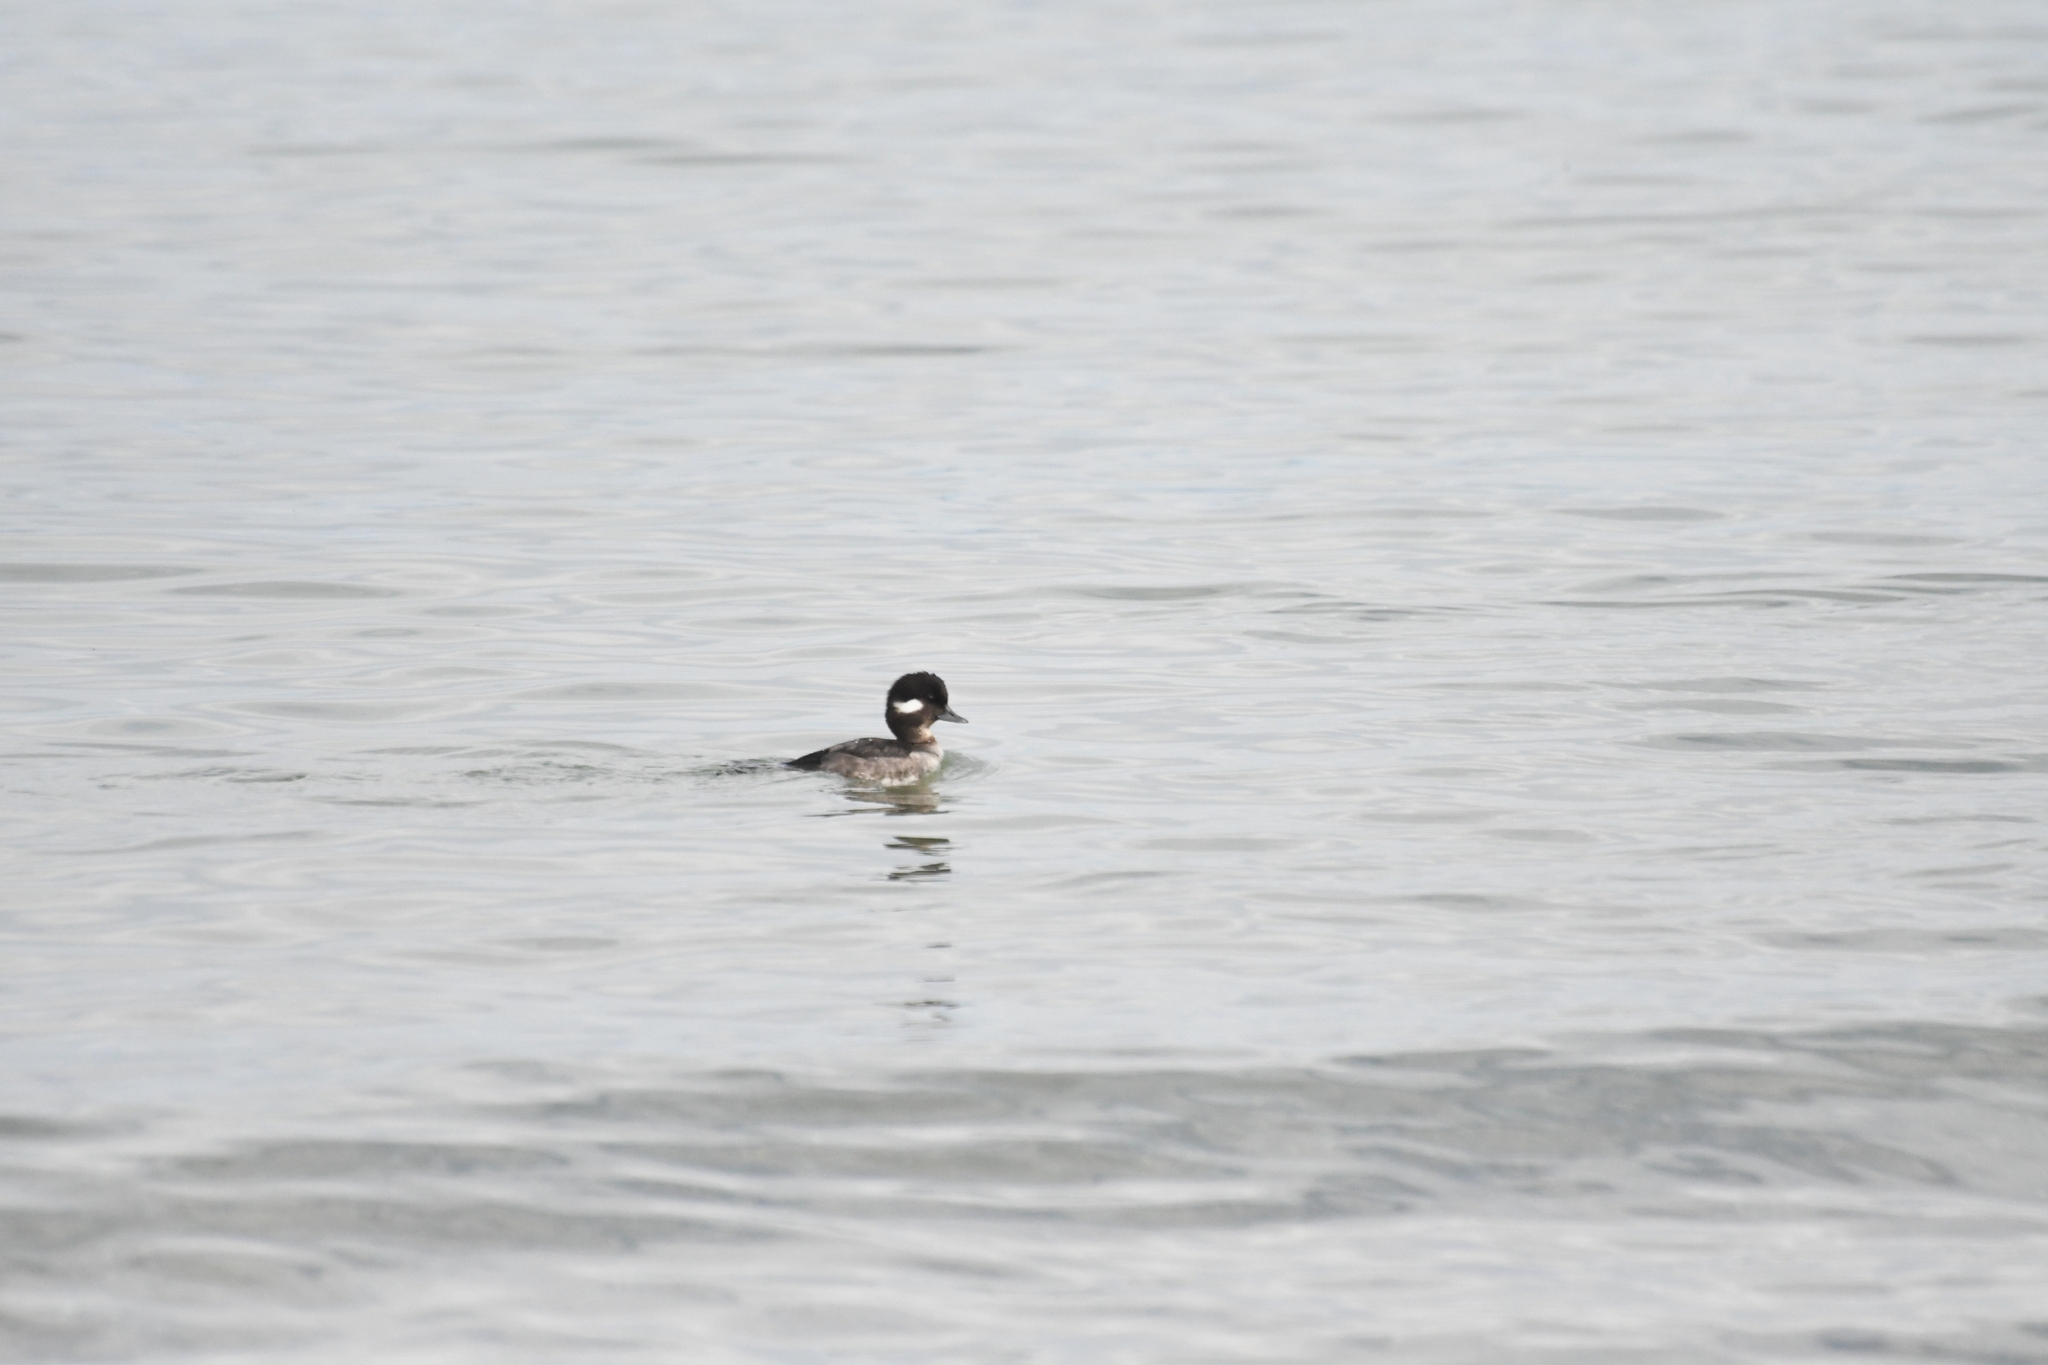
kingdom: Animalia
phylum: Chordata
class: Aves
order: Anseriformes
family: Anatidae
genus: Bucephala
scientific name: Bucephala albeola
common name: Bufflehead
